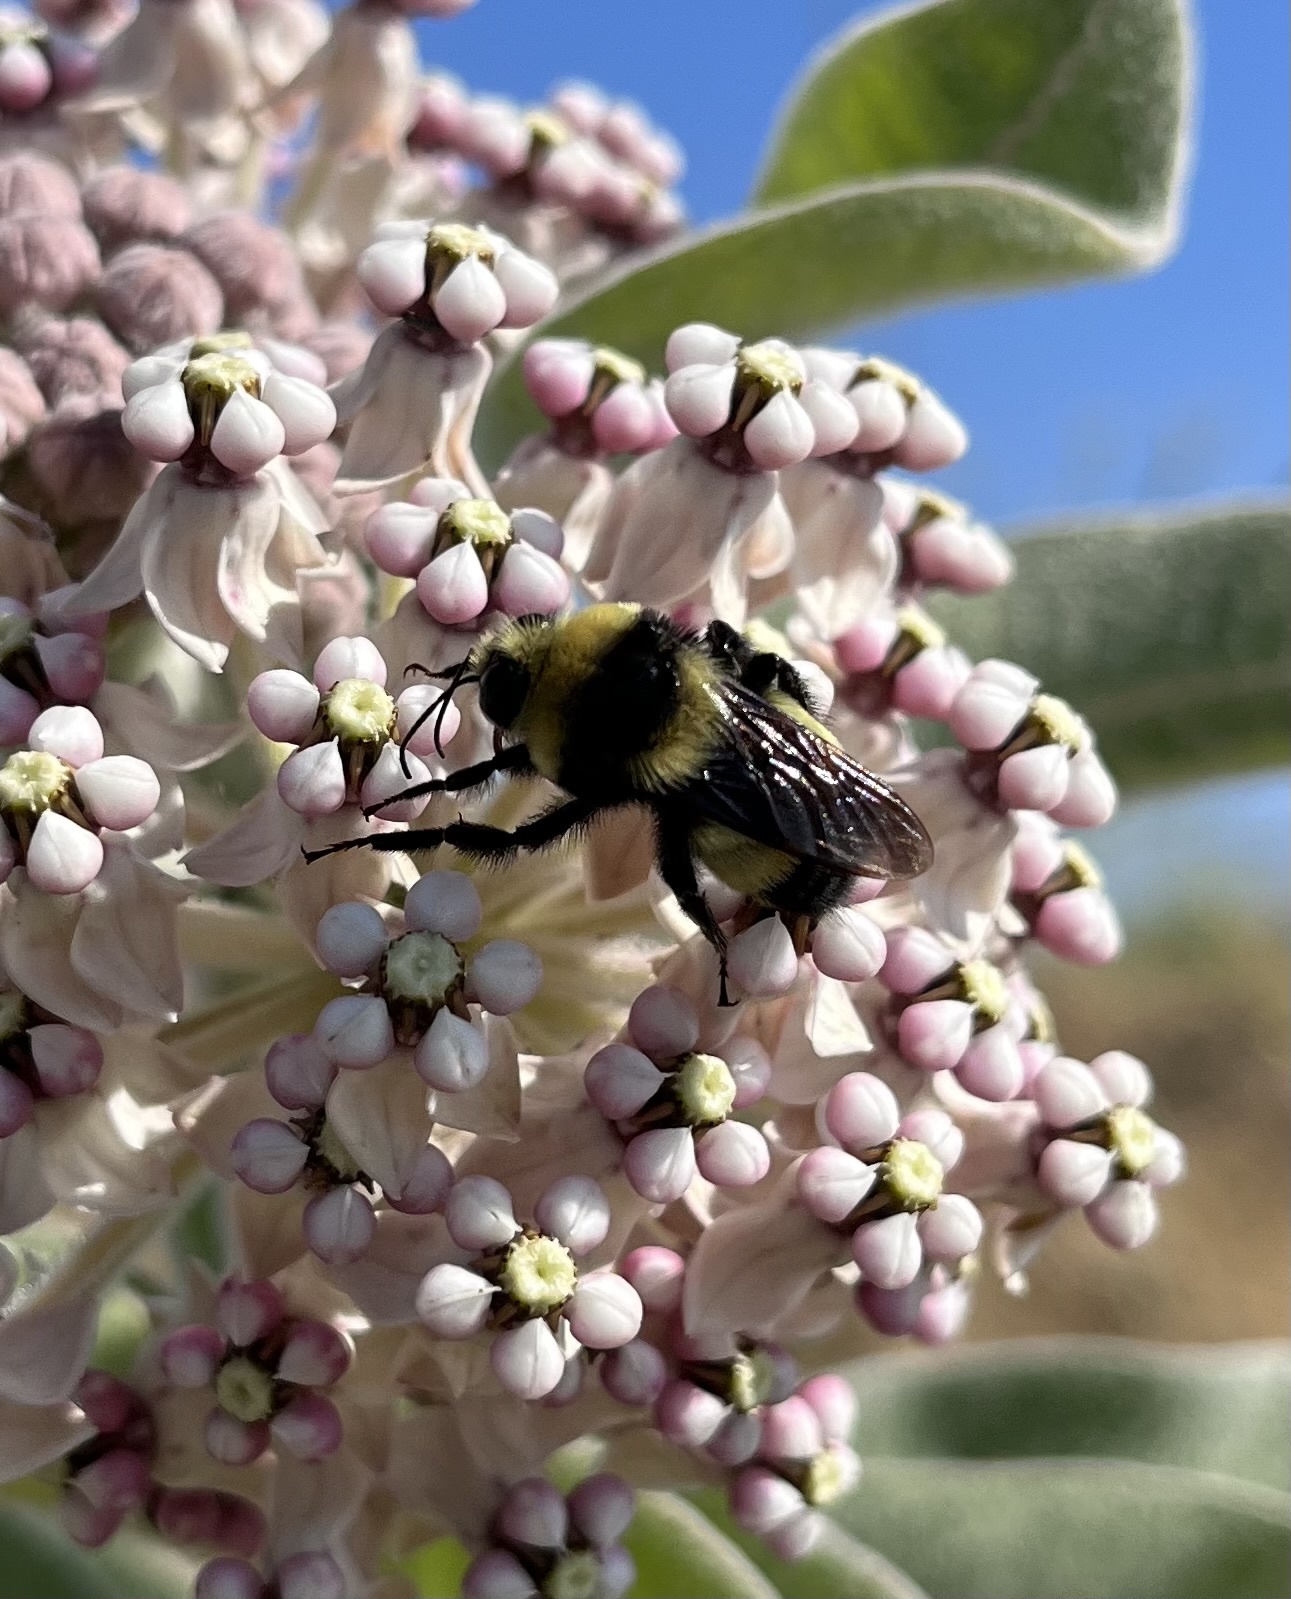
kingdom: Animalia
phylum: Arthropoda
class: Insecta
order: Hymenoptera
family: Apidae
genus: Bombus
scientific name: Bombus crotchii
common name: Crotch bumble bee
